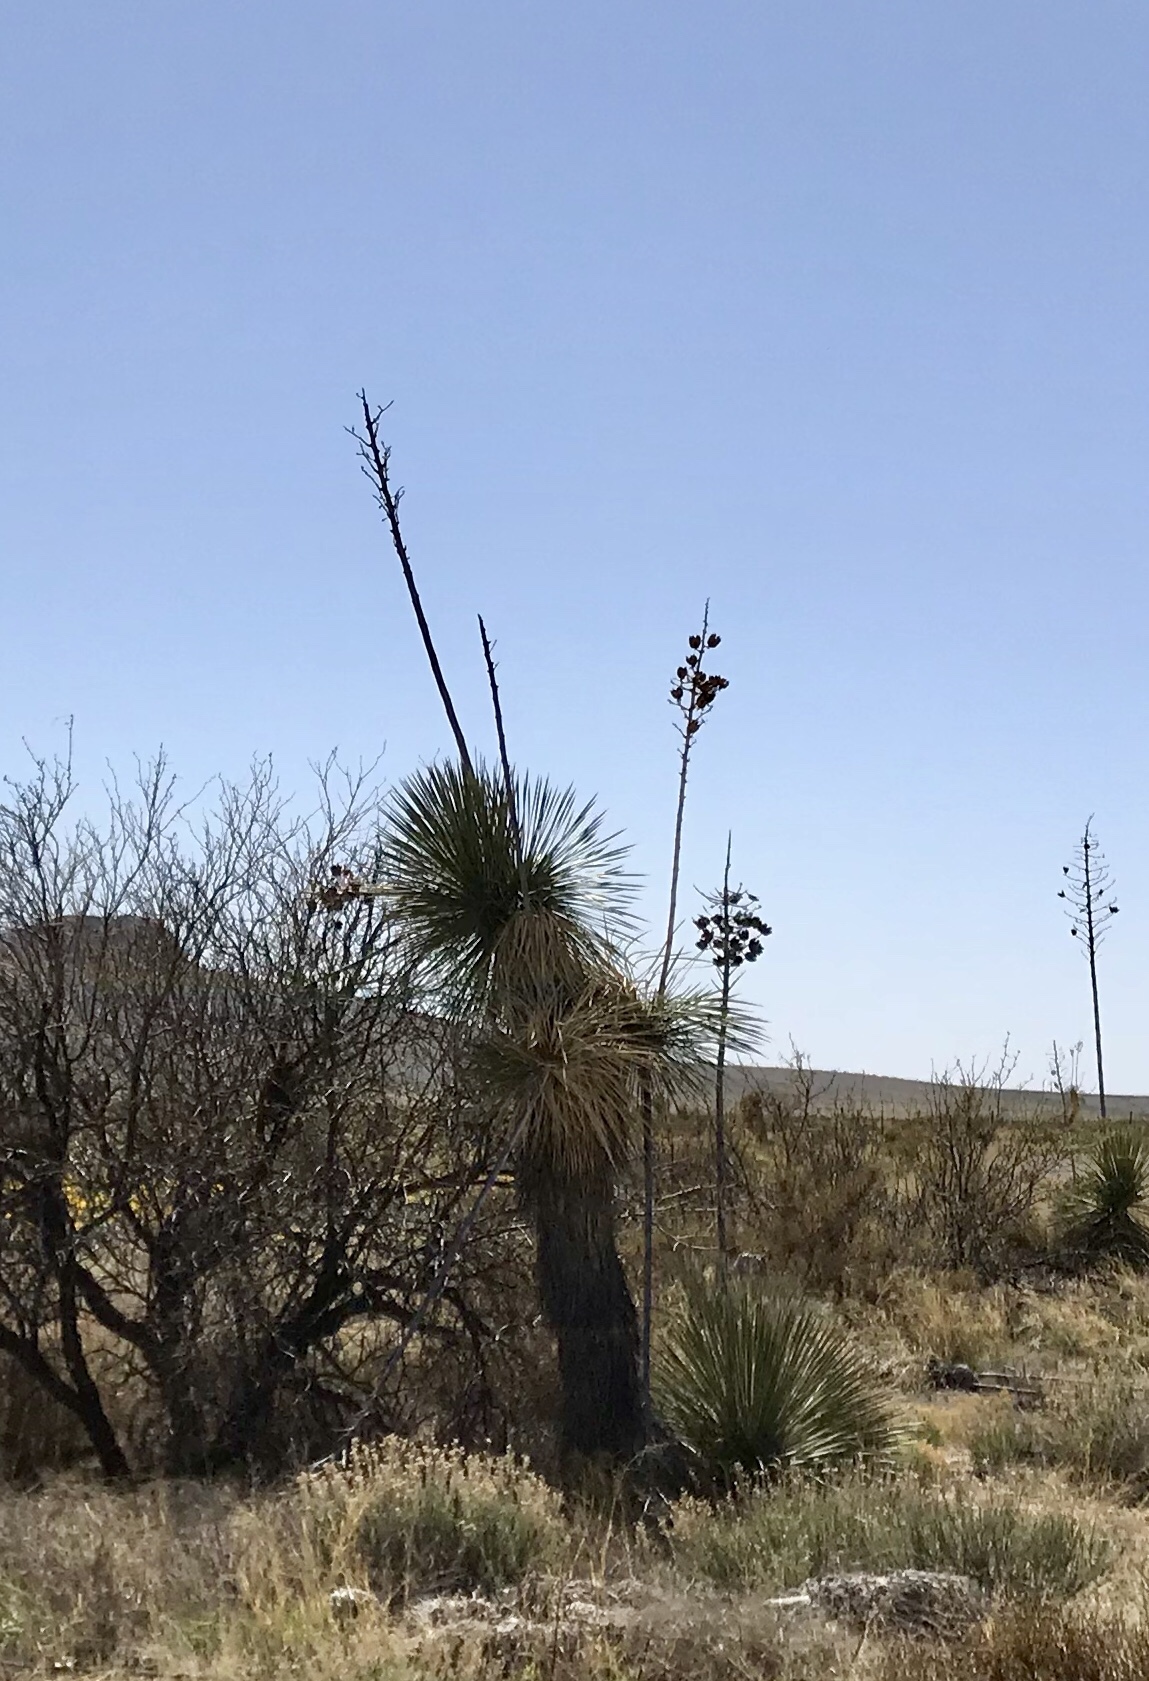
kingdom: Plantae
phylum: Tracheophyta
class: Liliopsida
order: Asparagales
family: Asparagaceae
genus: Yucca
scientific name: Yucca elata
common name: Palmella
